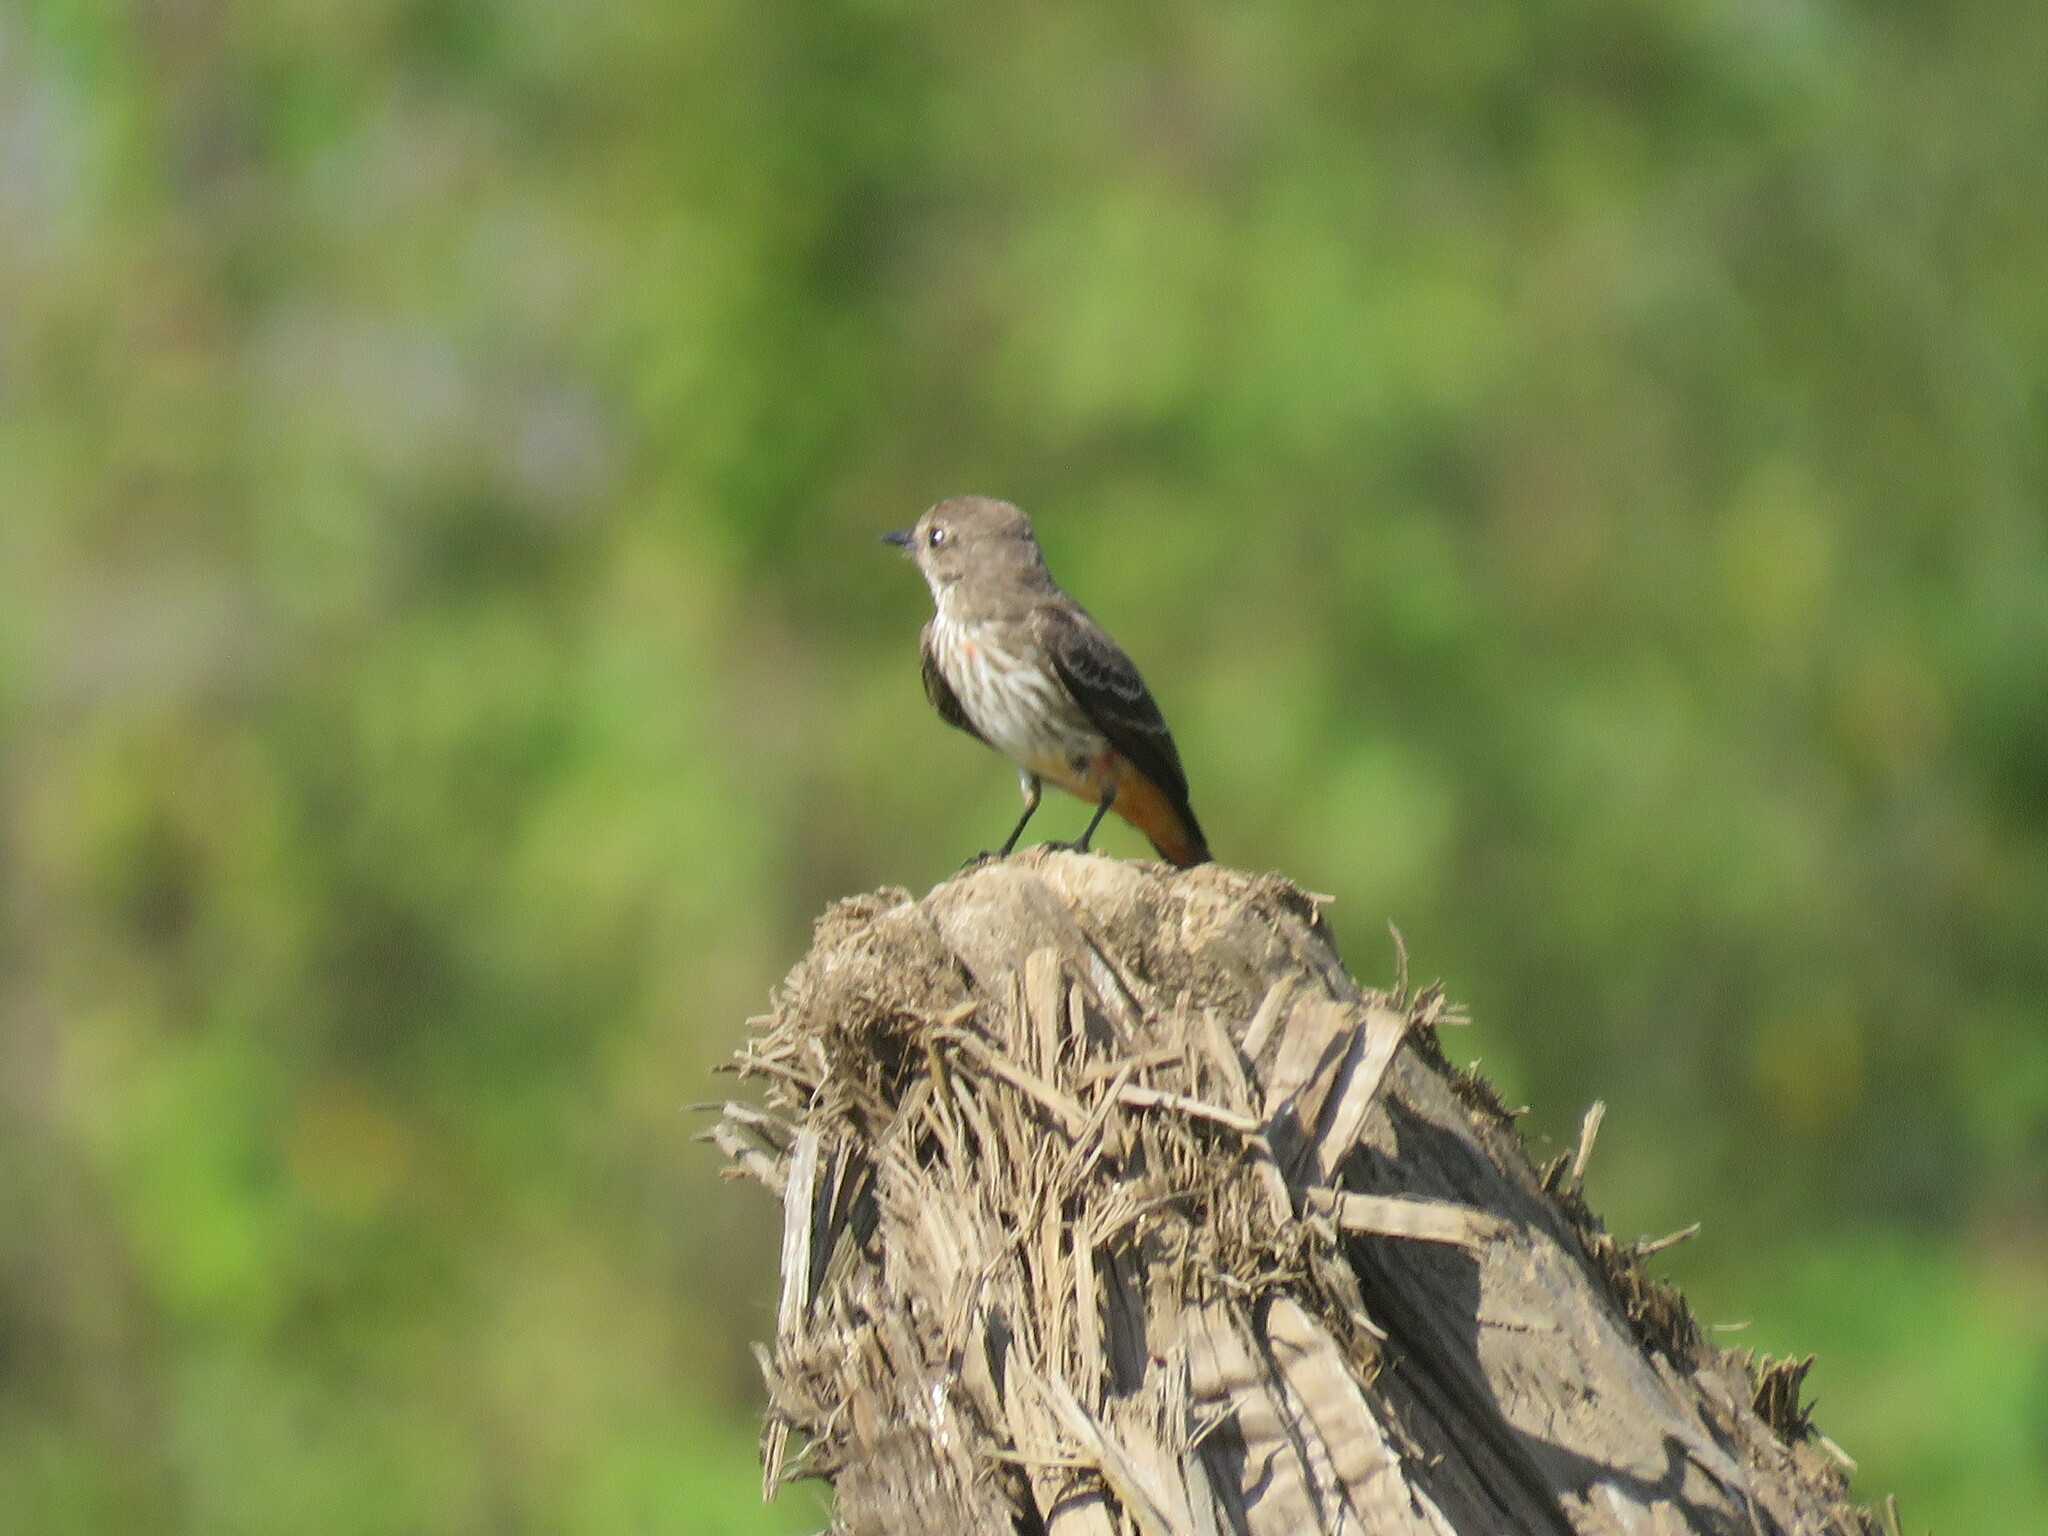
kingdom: Animalia
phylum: Chordata
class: Aves
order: Passeriformes
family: Tyrannidae
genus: Pyrocephalus
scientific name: Pyrocephalus rubinus
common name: Vermilion flycatcher
